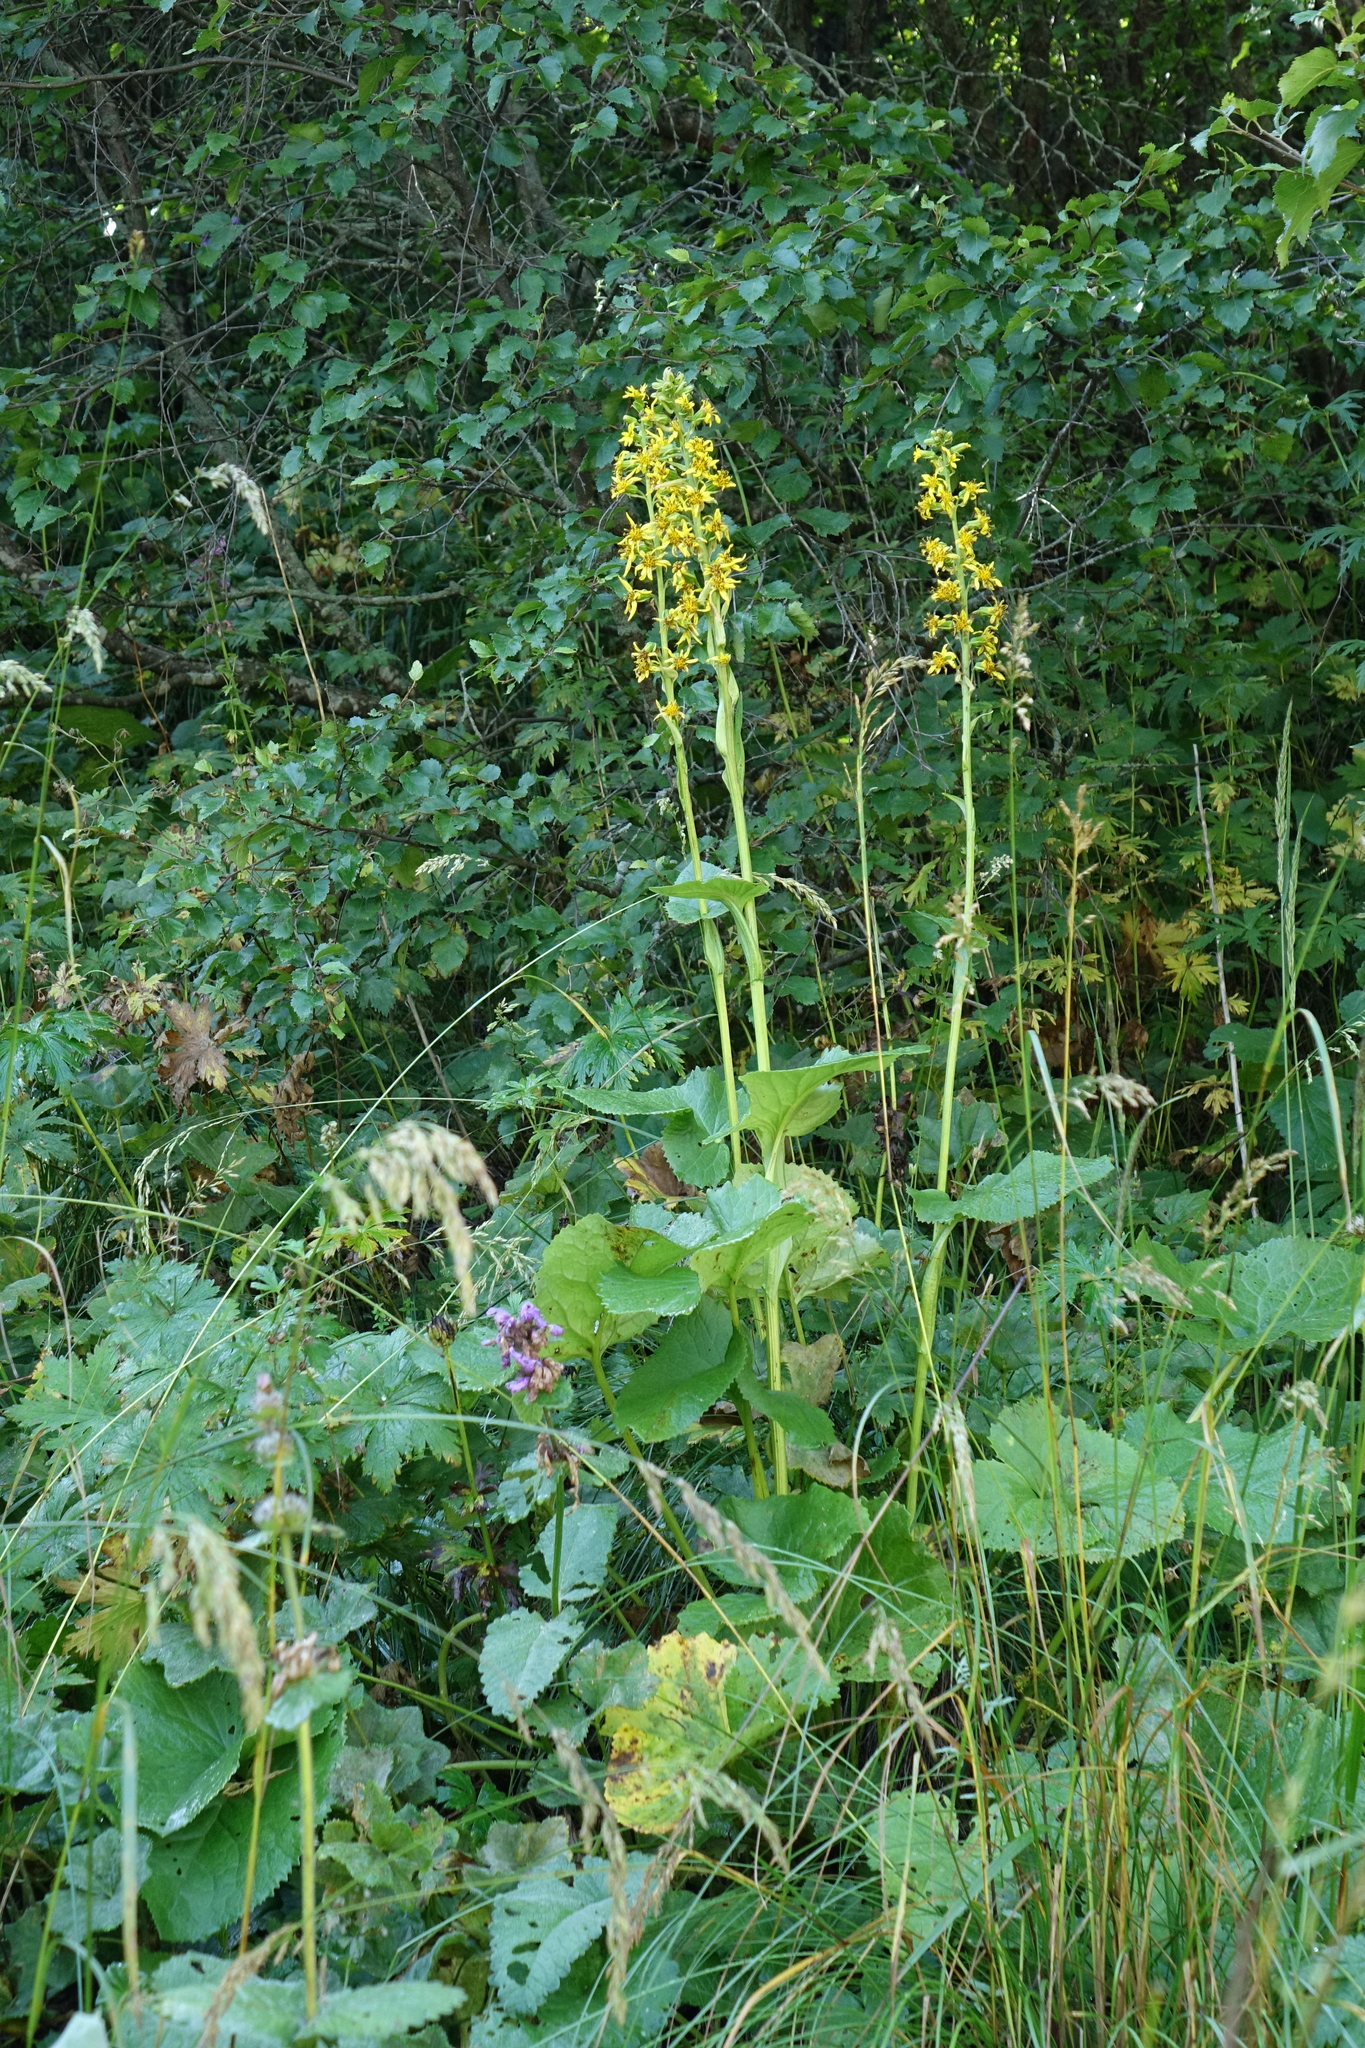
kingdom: Plantae
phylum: Tracheophyta
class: Magnoliopsida
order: Asterales
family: Asteraceae
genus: Ligularia
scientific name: Ligularia subsagittata
